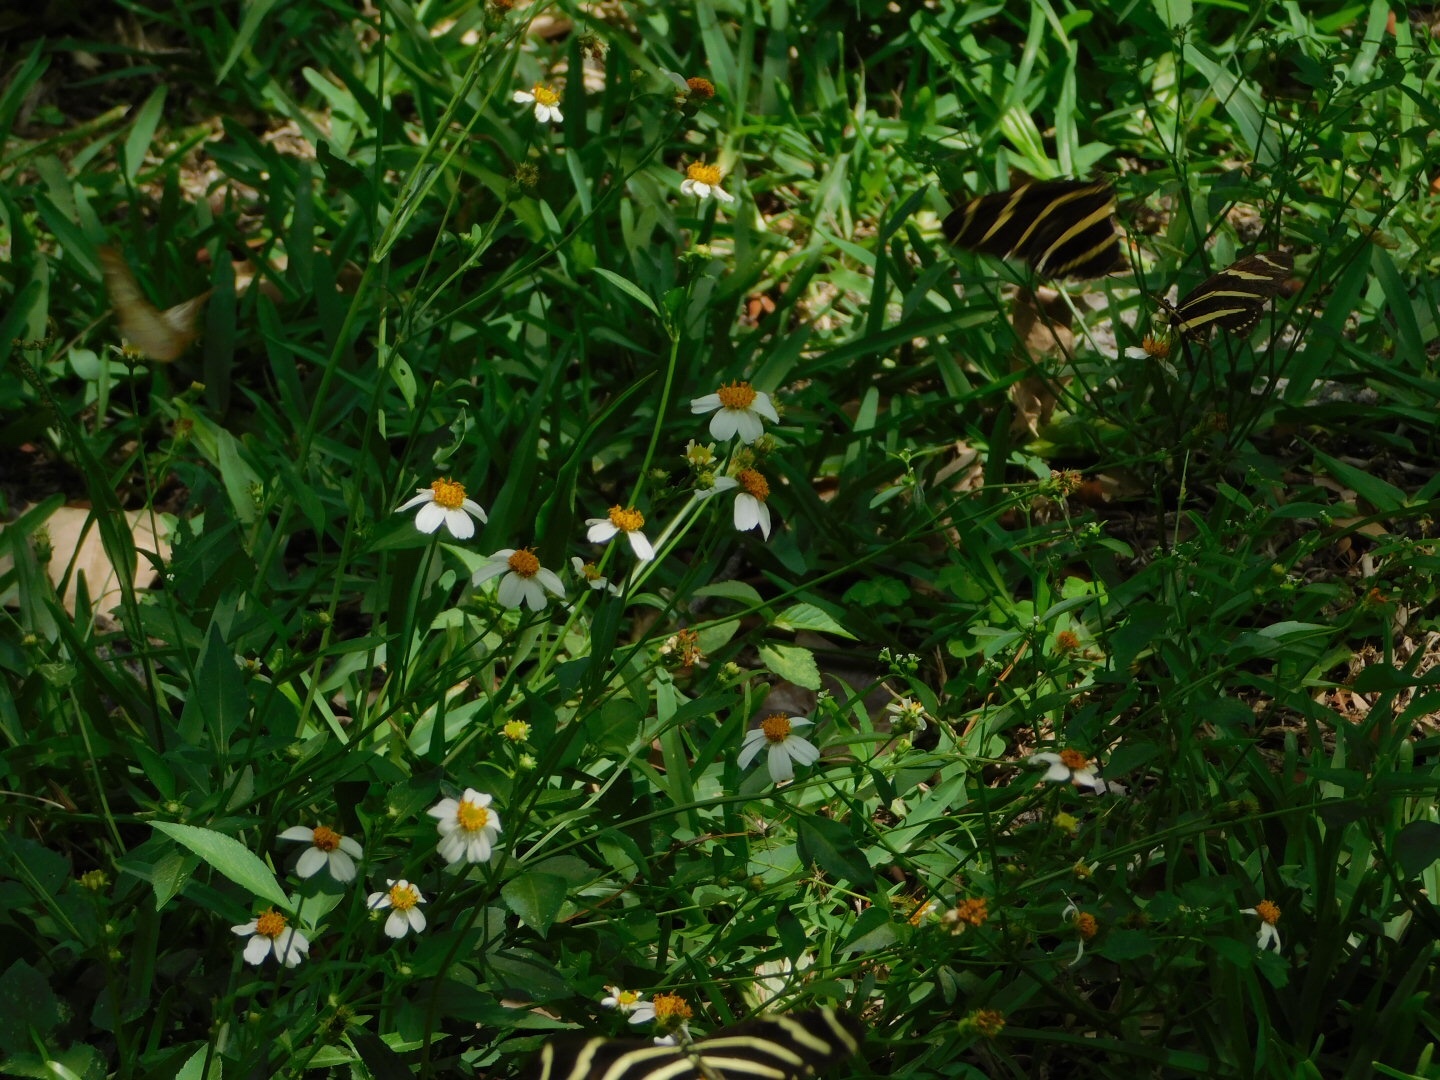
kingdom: Animalia
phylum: Arthropoda
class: Insecta
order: Lepidoptera
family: Nymphalidae
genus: Heliconius
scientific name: Heliconius charithonia
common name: Zebra long wing
